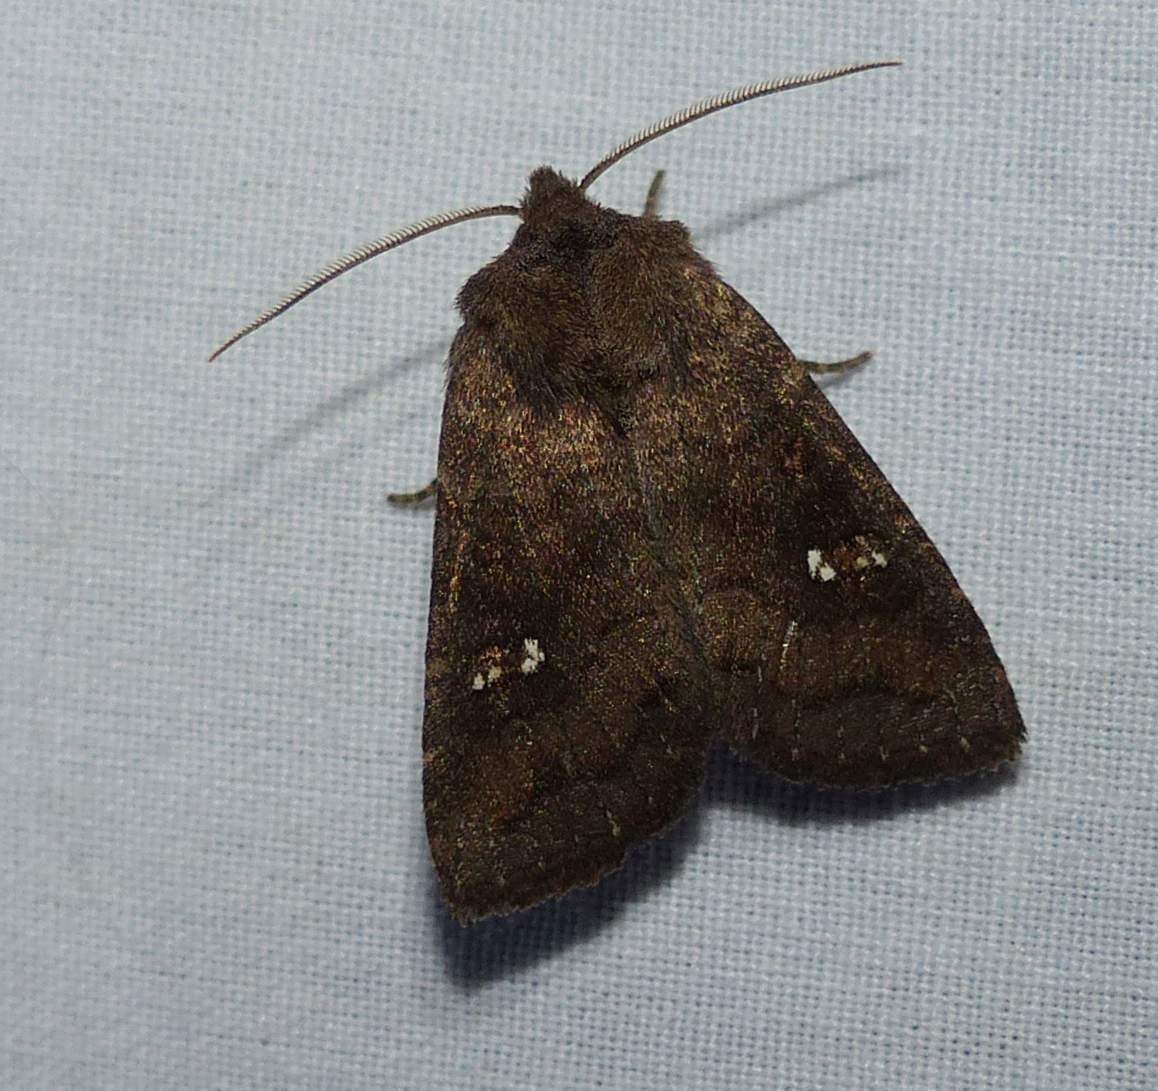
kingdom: Animalia
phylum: Arthropoda
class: Insecta
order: Lepidoptera
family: Noctuidae
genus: Tricholita
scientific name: Tricholita signata
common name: Signate quaker
